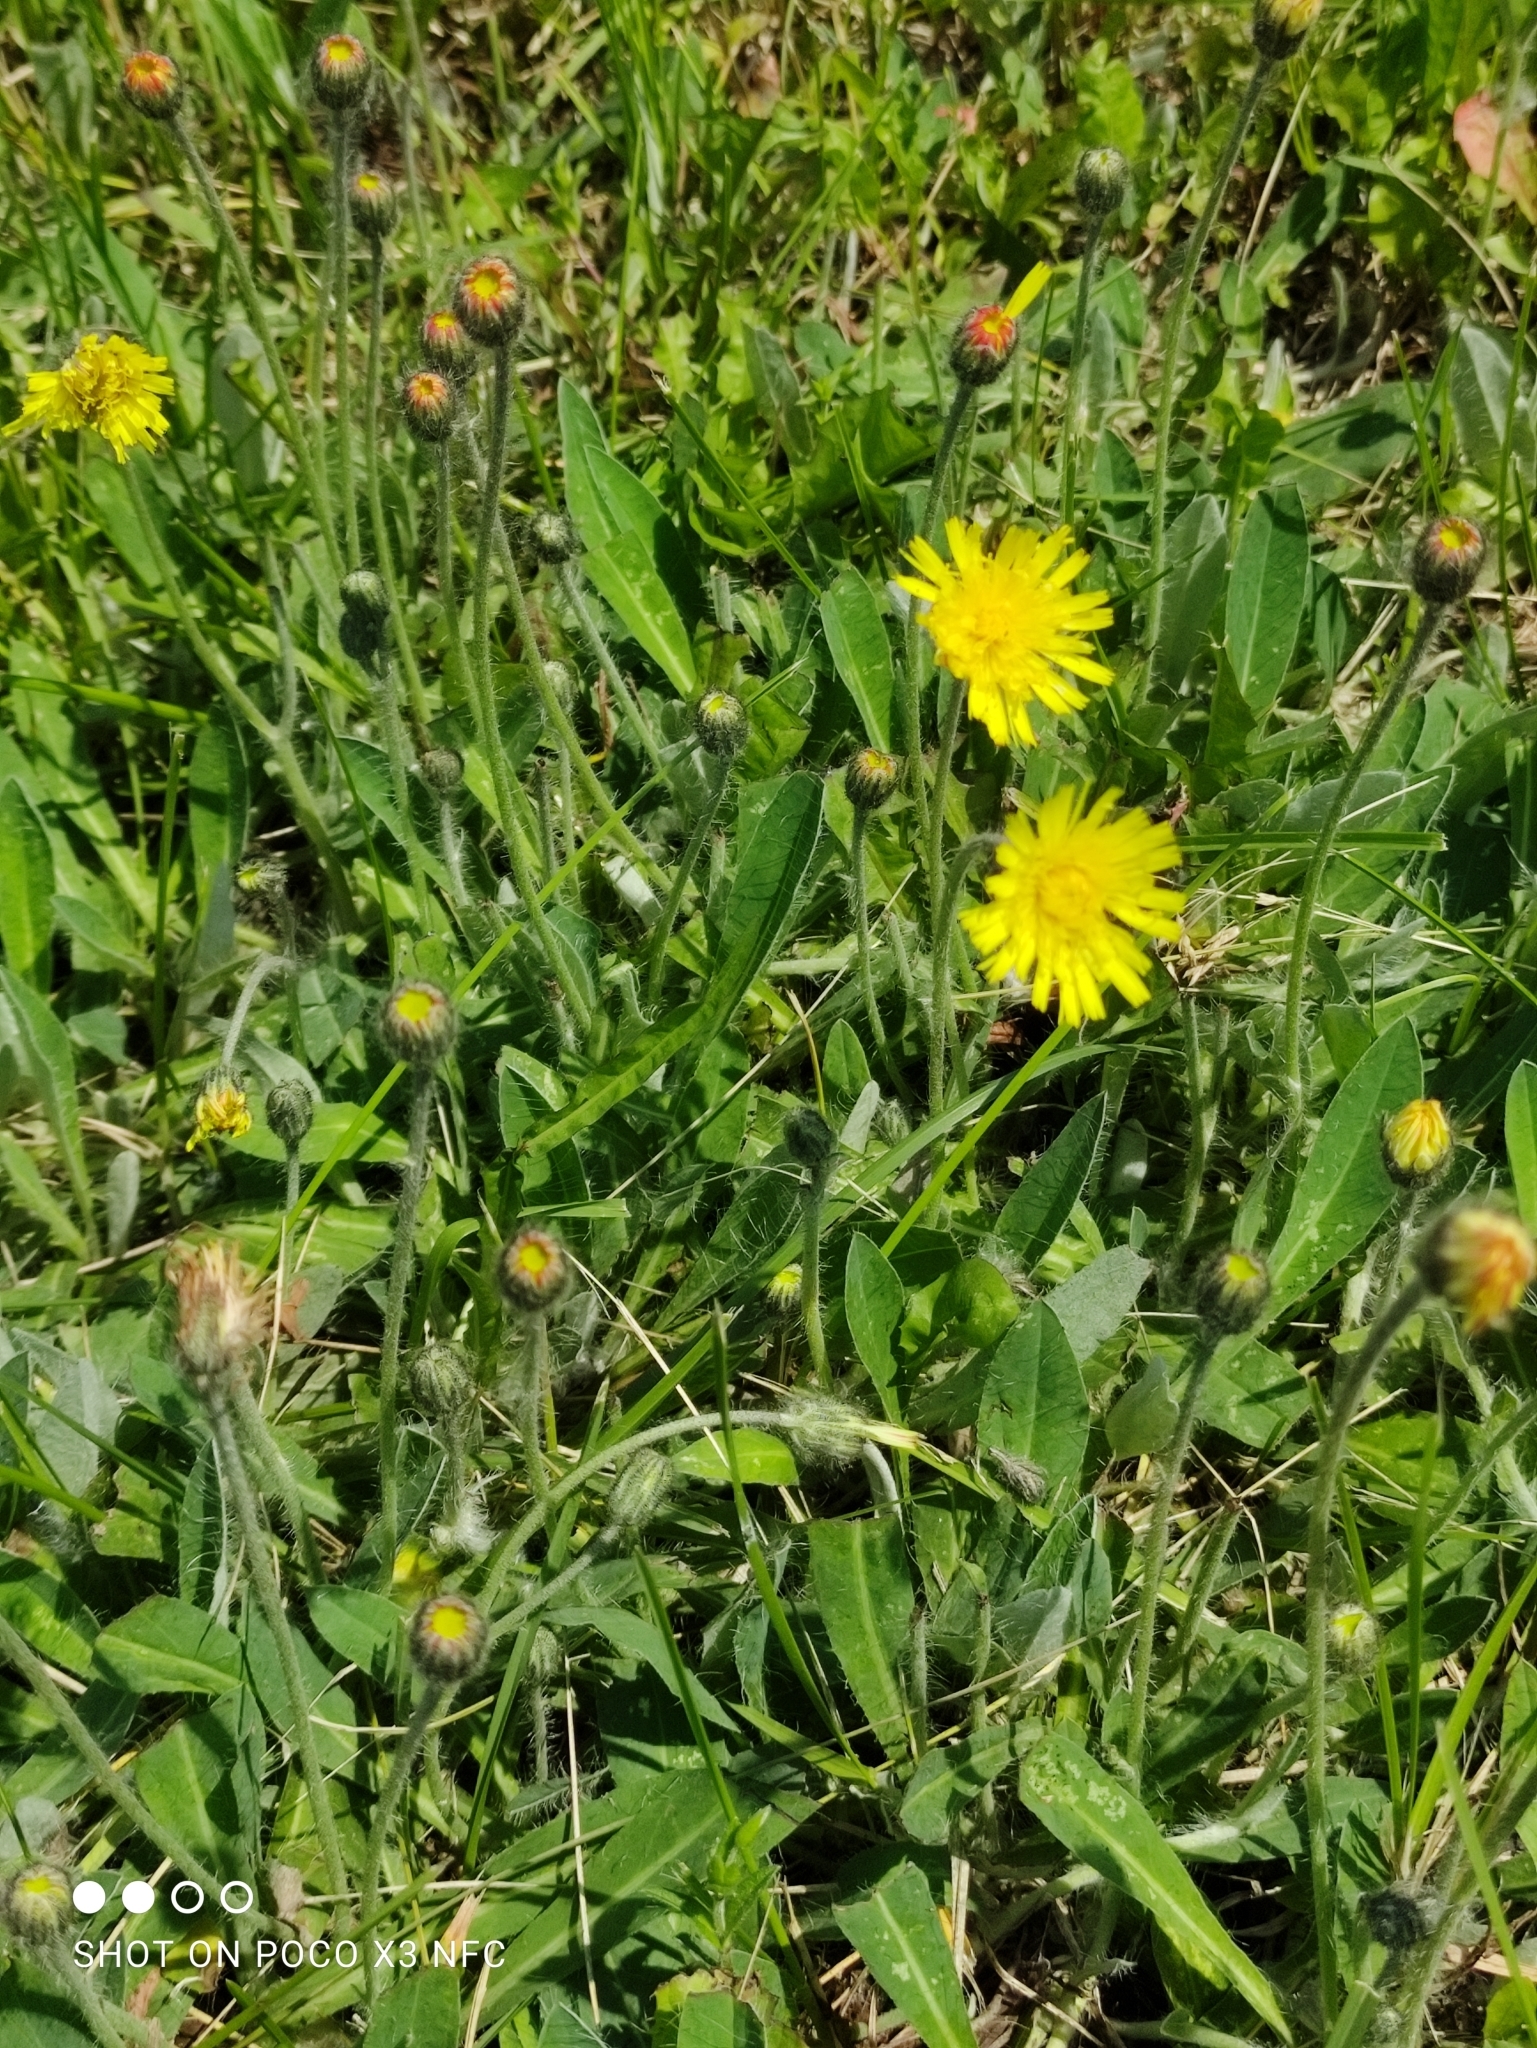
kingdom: Plantae
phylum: Tracheophyta
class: Magnoliopsida
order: Asterales
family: Asteraceae
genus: Pilosella
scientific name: Pilosella officinarum
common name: Mouse-ear hawkweed
